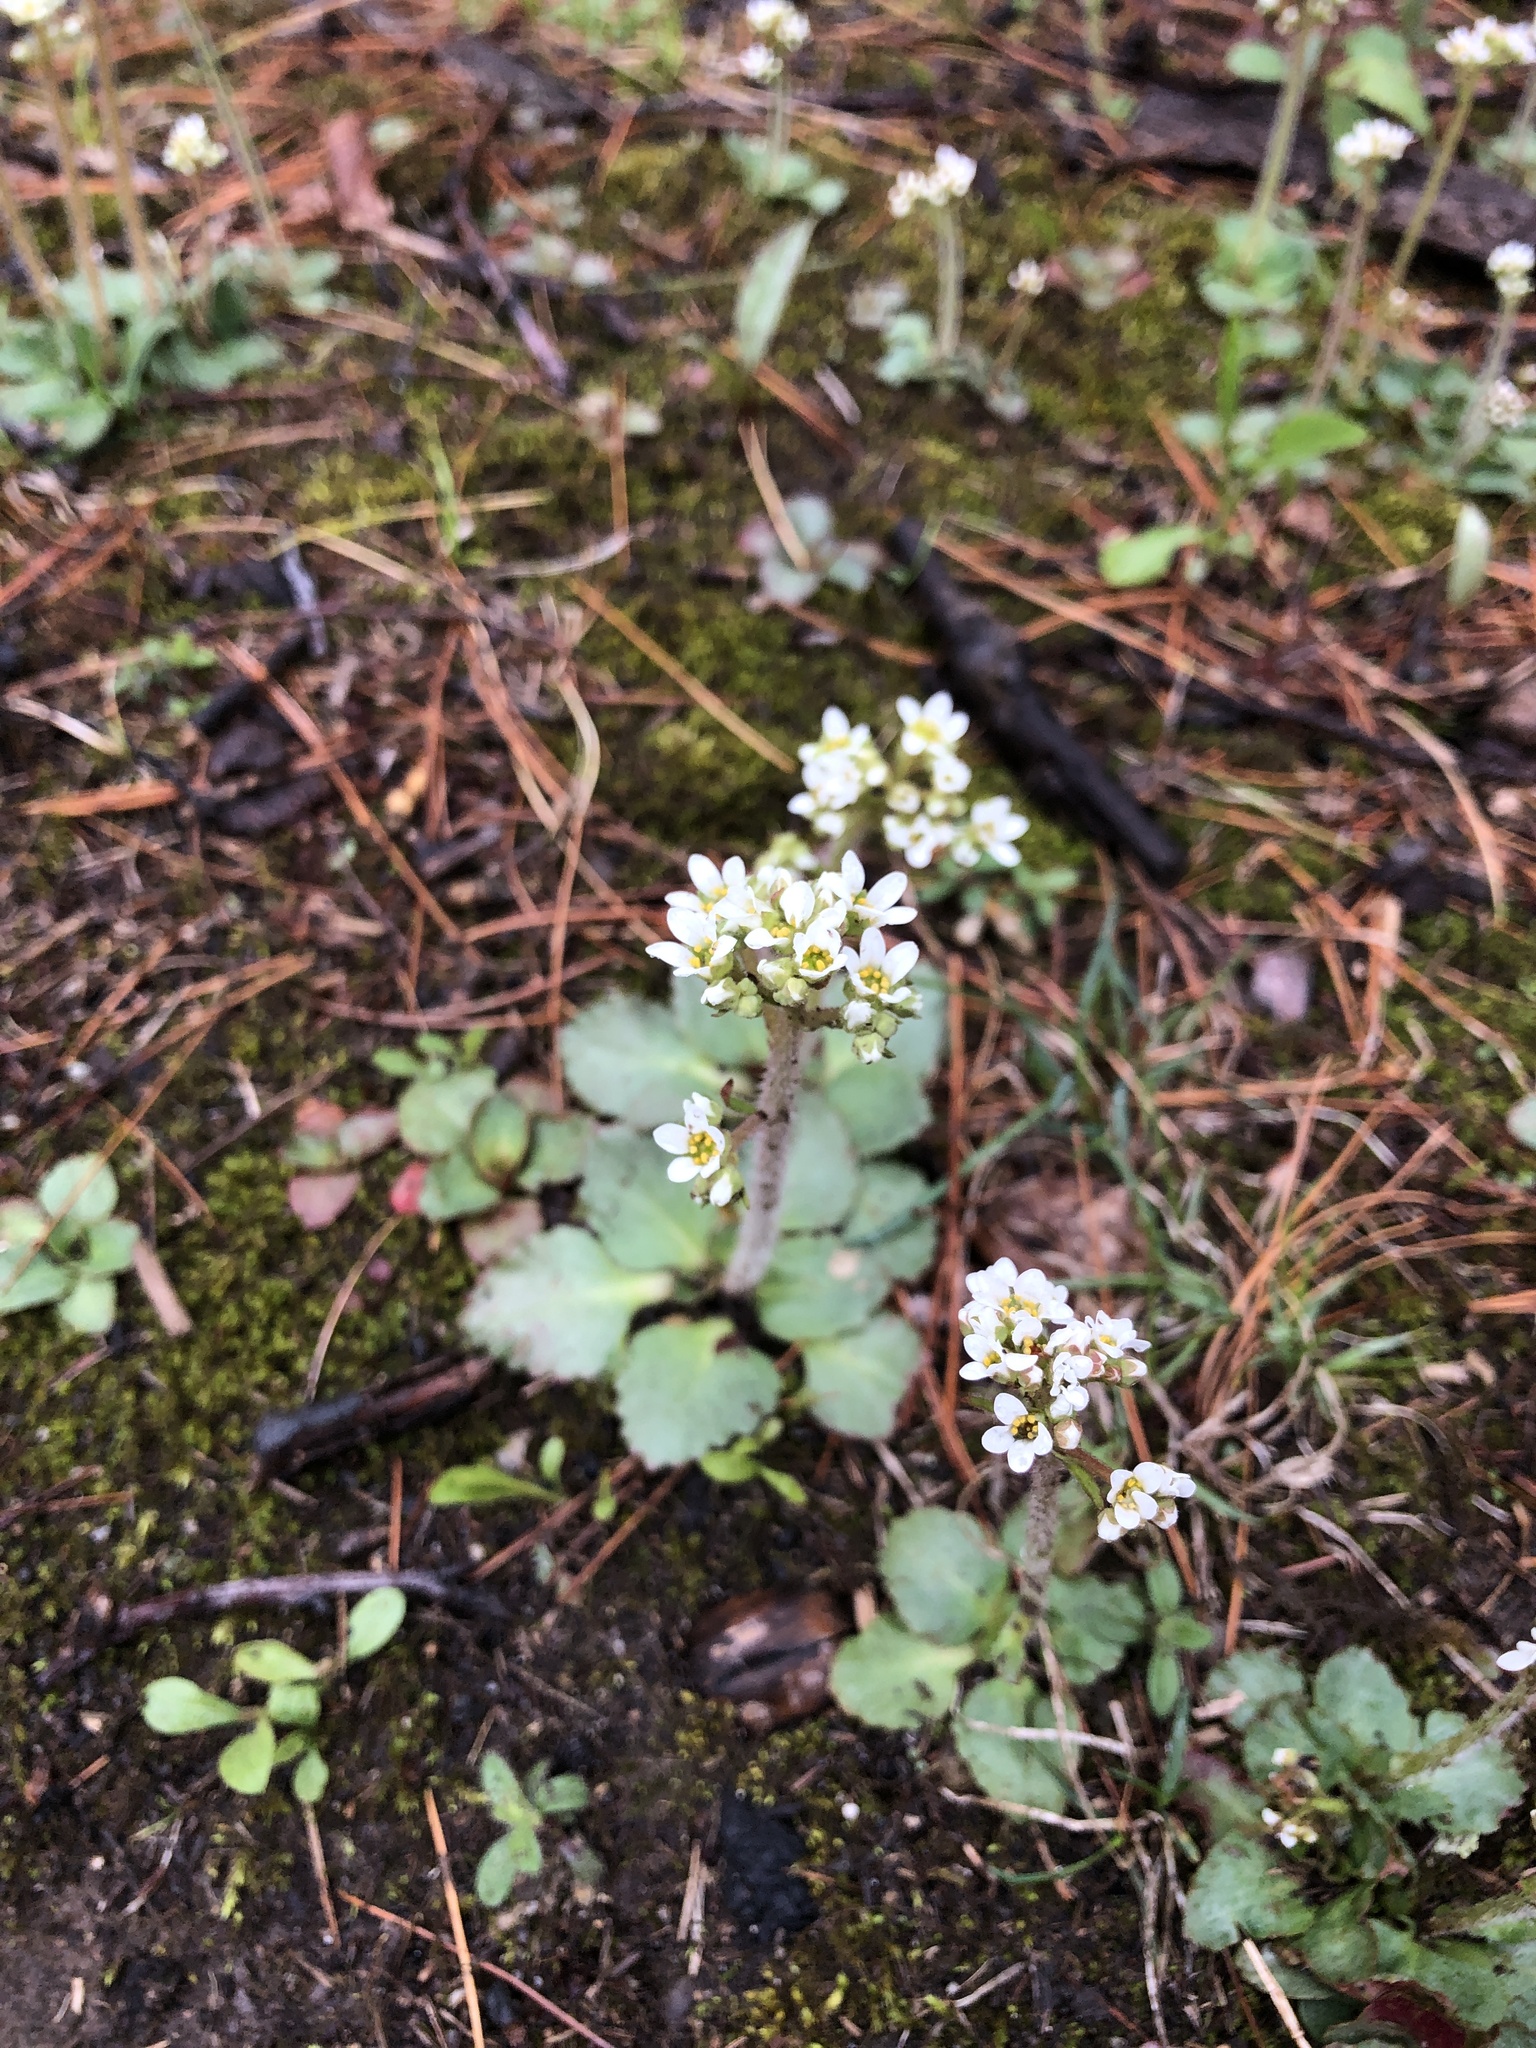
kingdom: Plantae
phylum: Tracheophyta
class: Magnoliopsida
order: Saxifragales
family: Saxifragaceae
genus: Micranthes
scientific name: Micranthes virginiensis
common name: Early saxifrage
